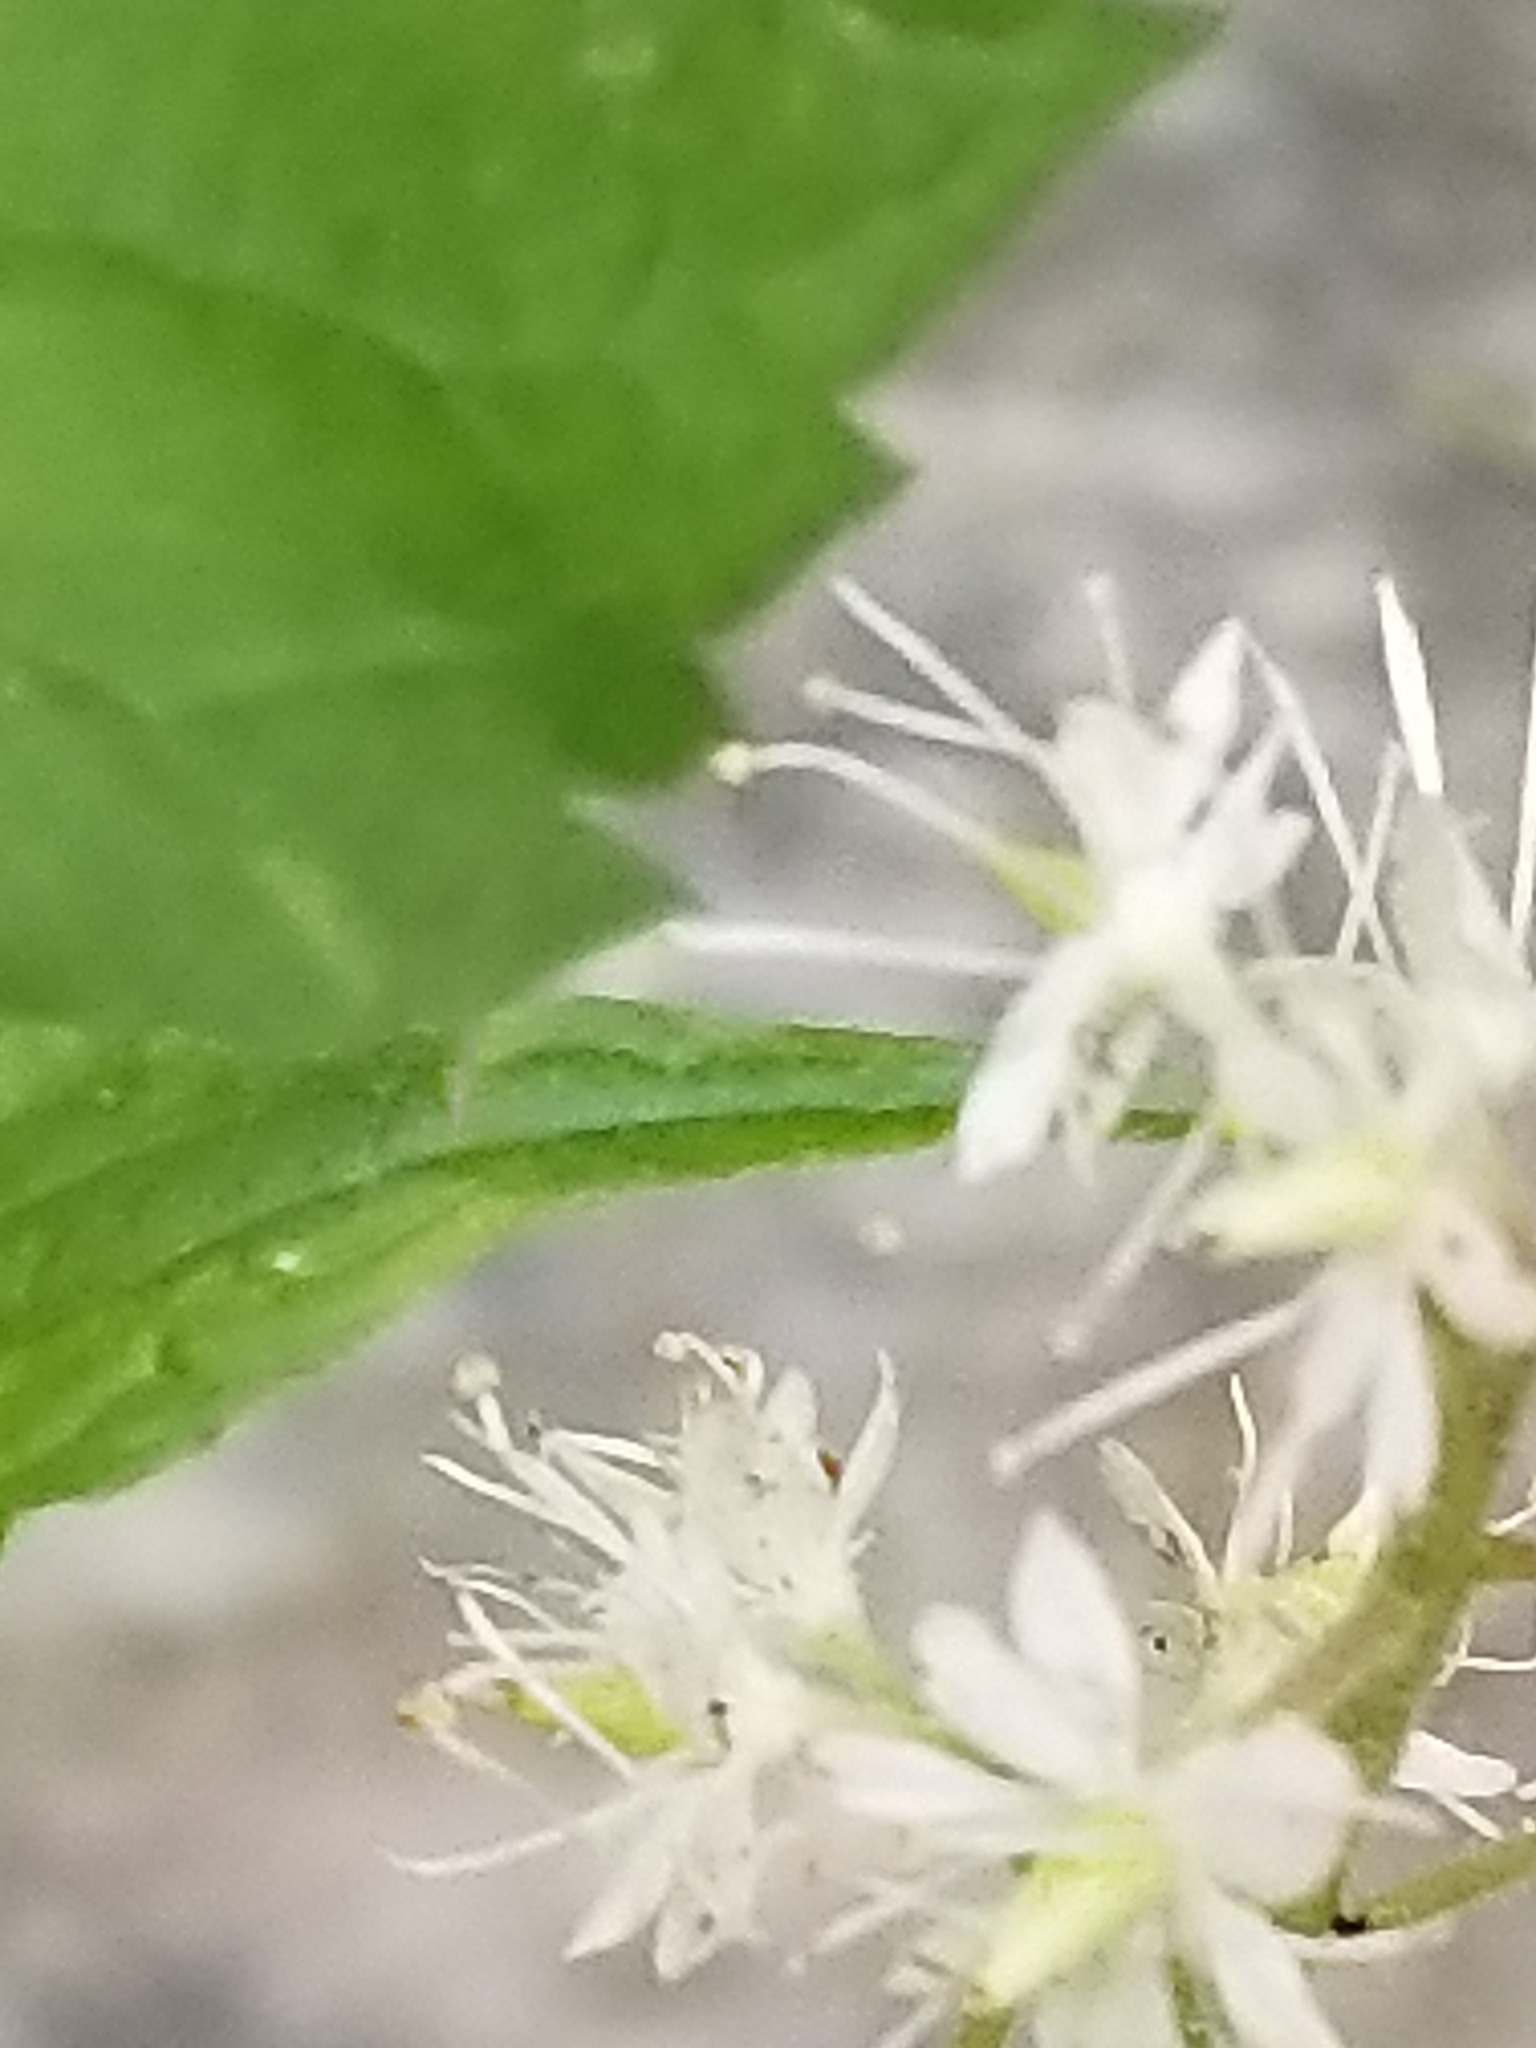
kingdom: Plantae
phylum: Tracheophyta
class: Magnoliopsida
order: Saxifragales
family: Saxifragaceae
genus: Tiarella
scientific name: Tiarella stolonifera
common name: Stoloniferous foamflower
